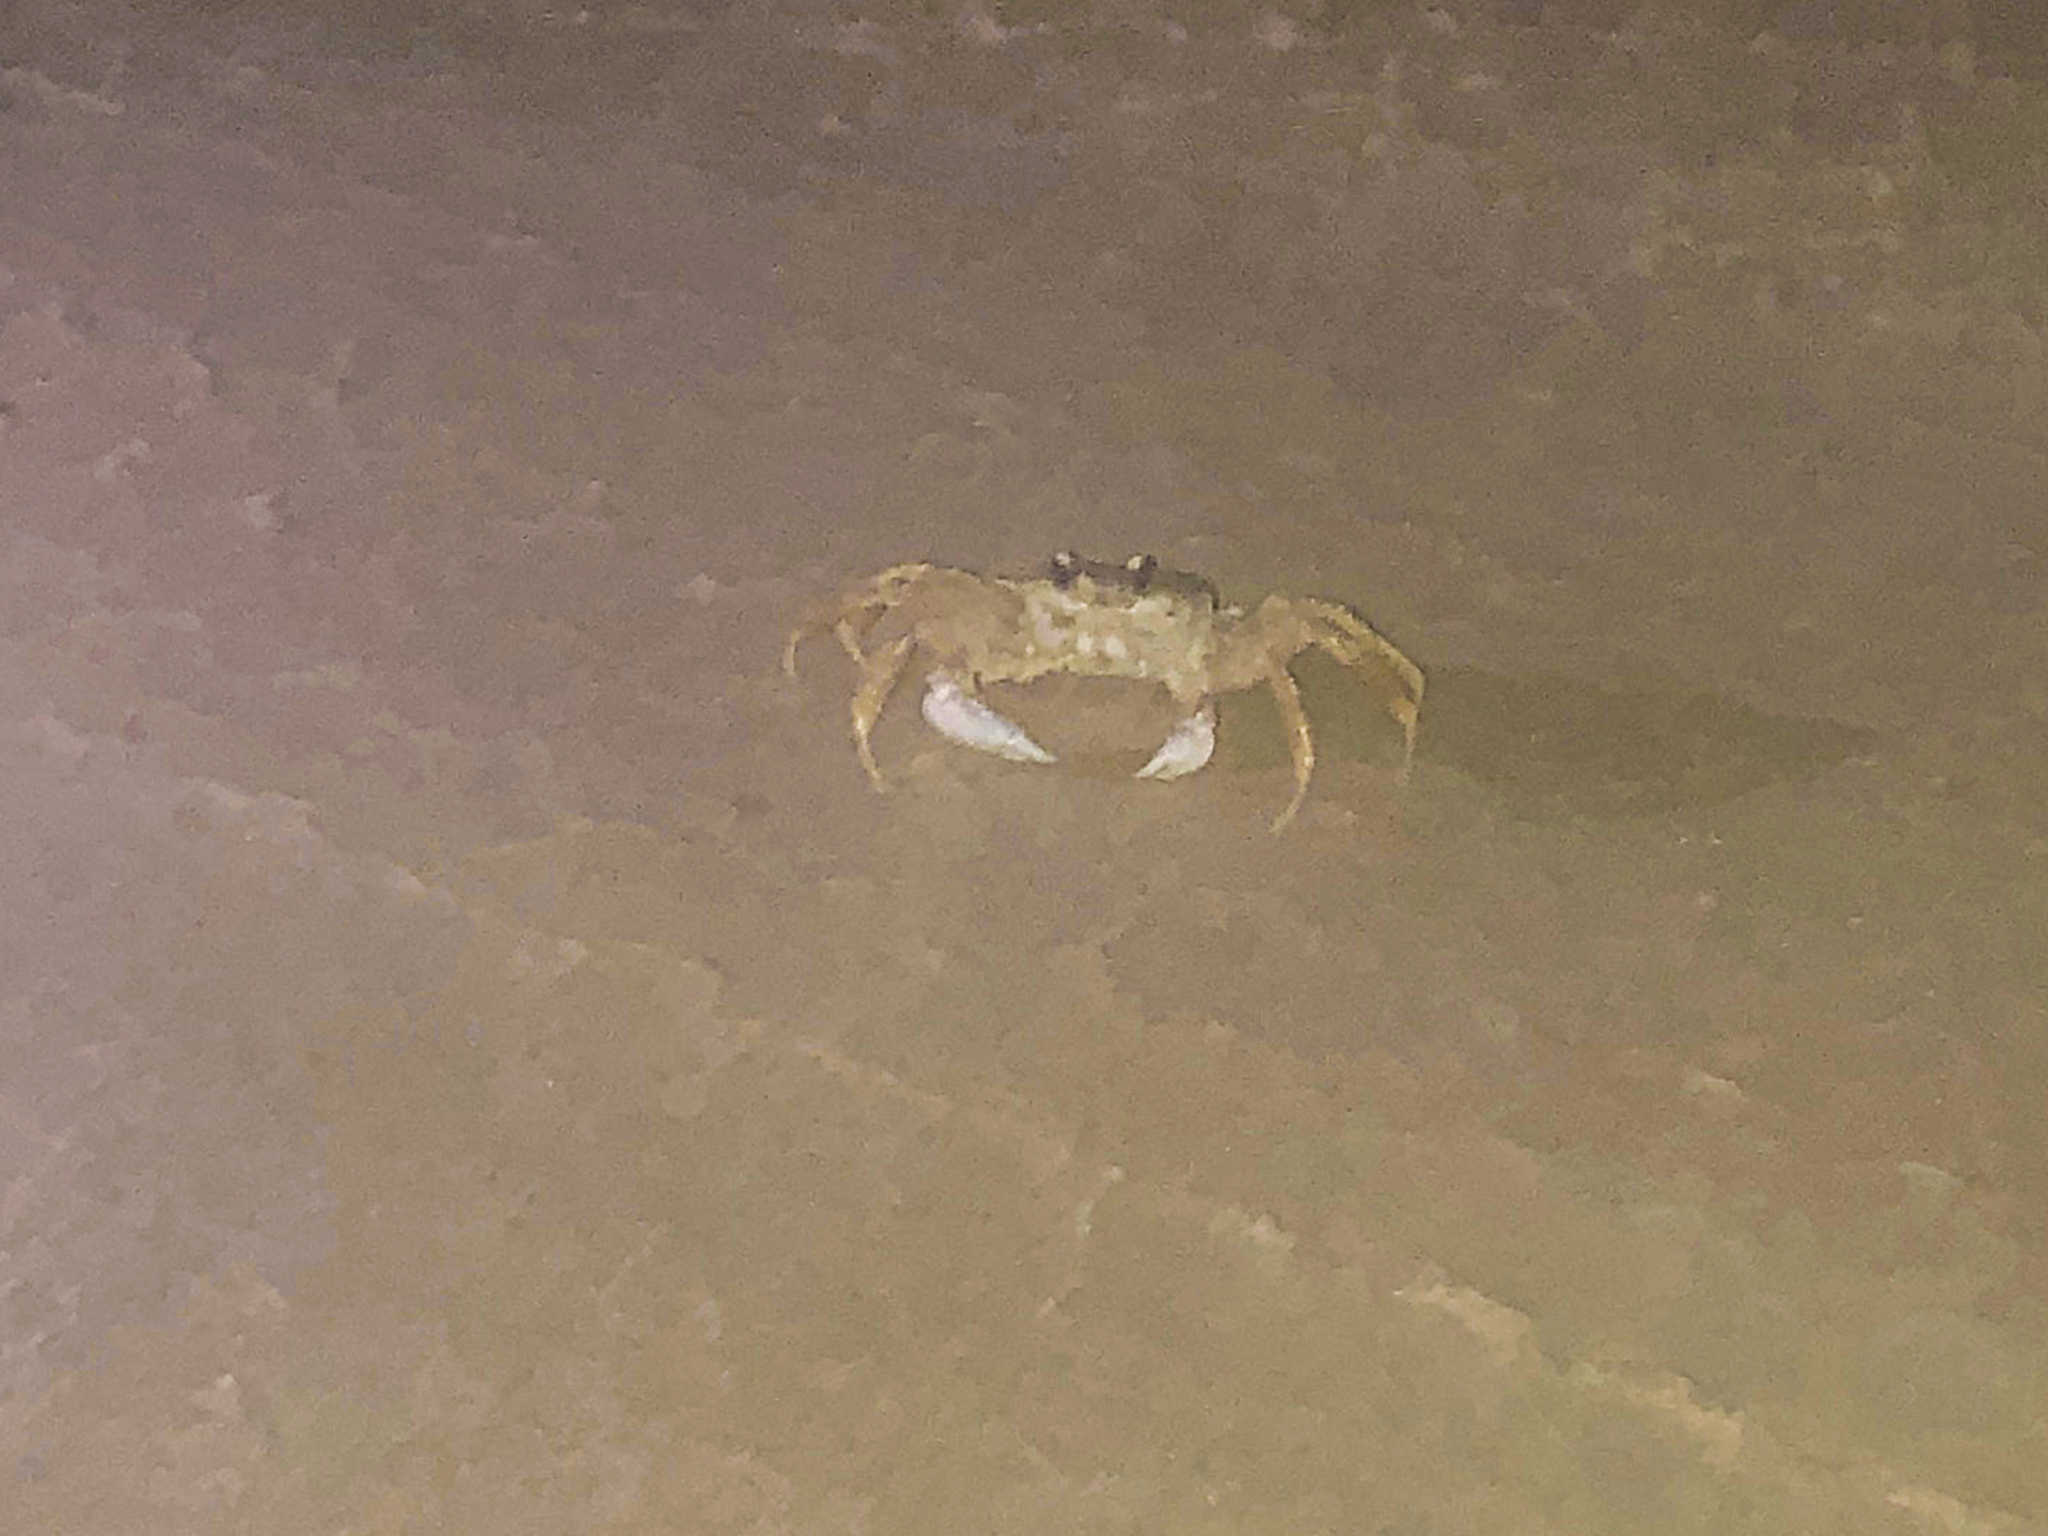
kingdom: Animalia
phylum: Arthropoda
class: Malacostraca
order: Decapoda
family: Ocypodidae
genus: Ocypode
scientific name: Ocypode quadrata
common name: Ghost crab
